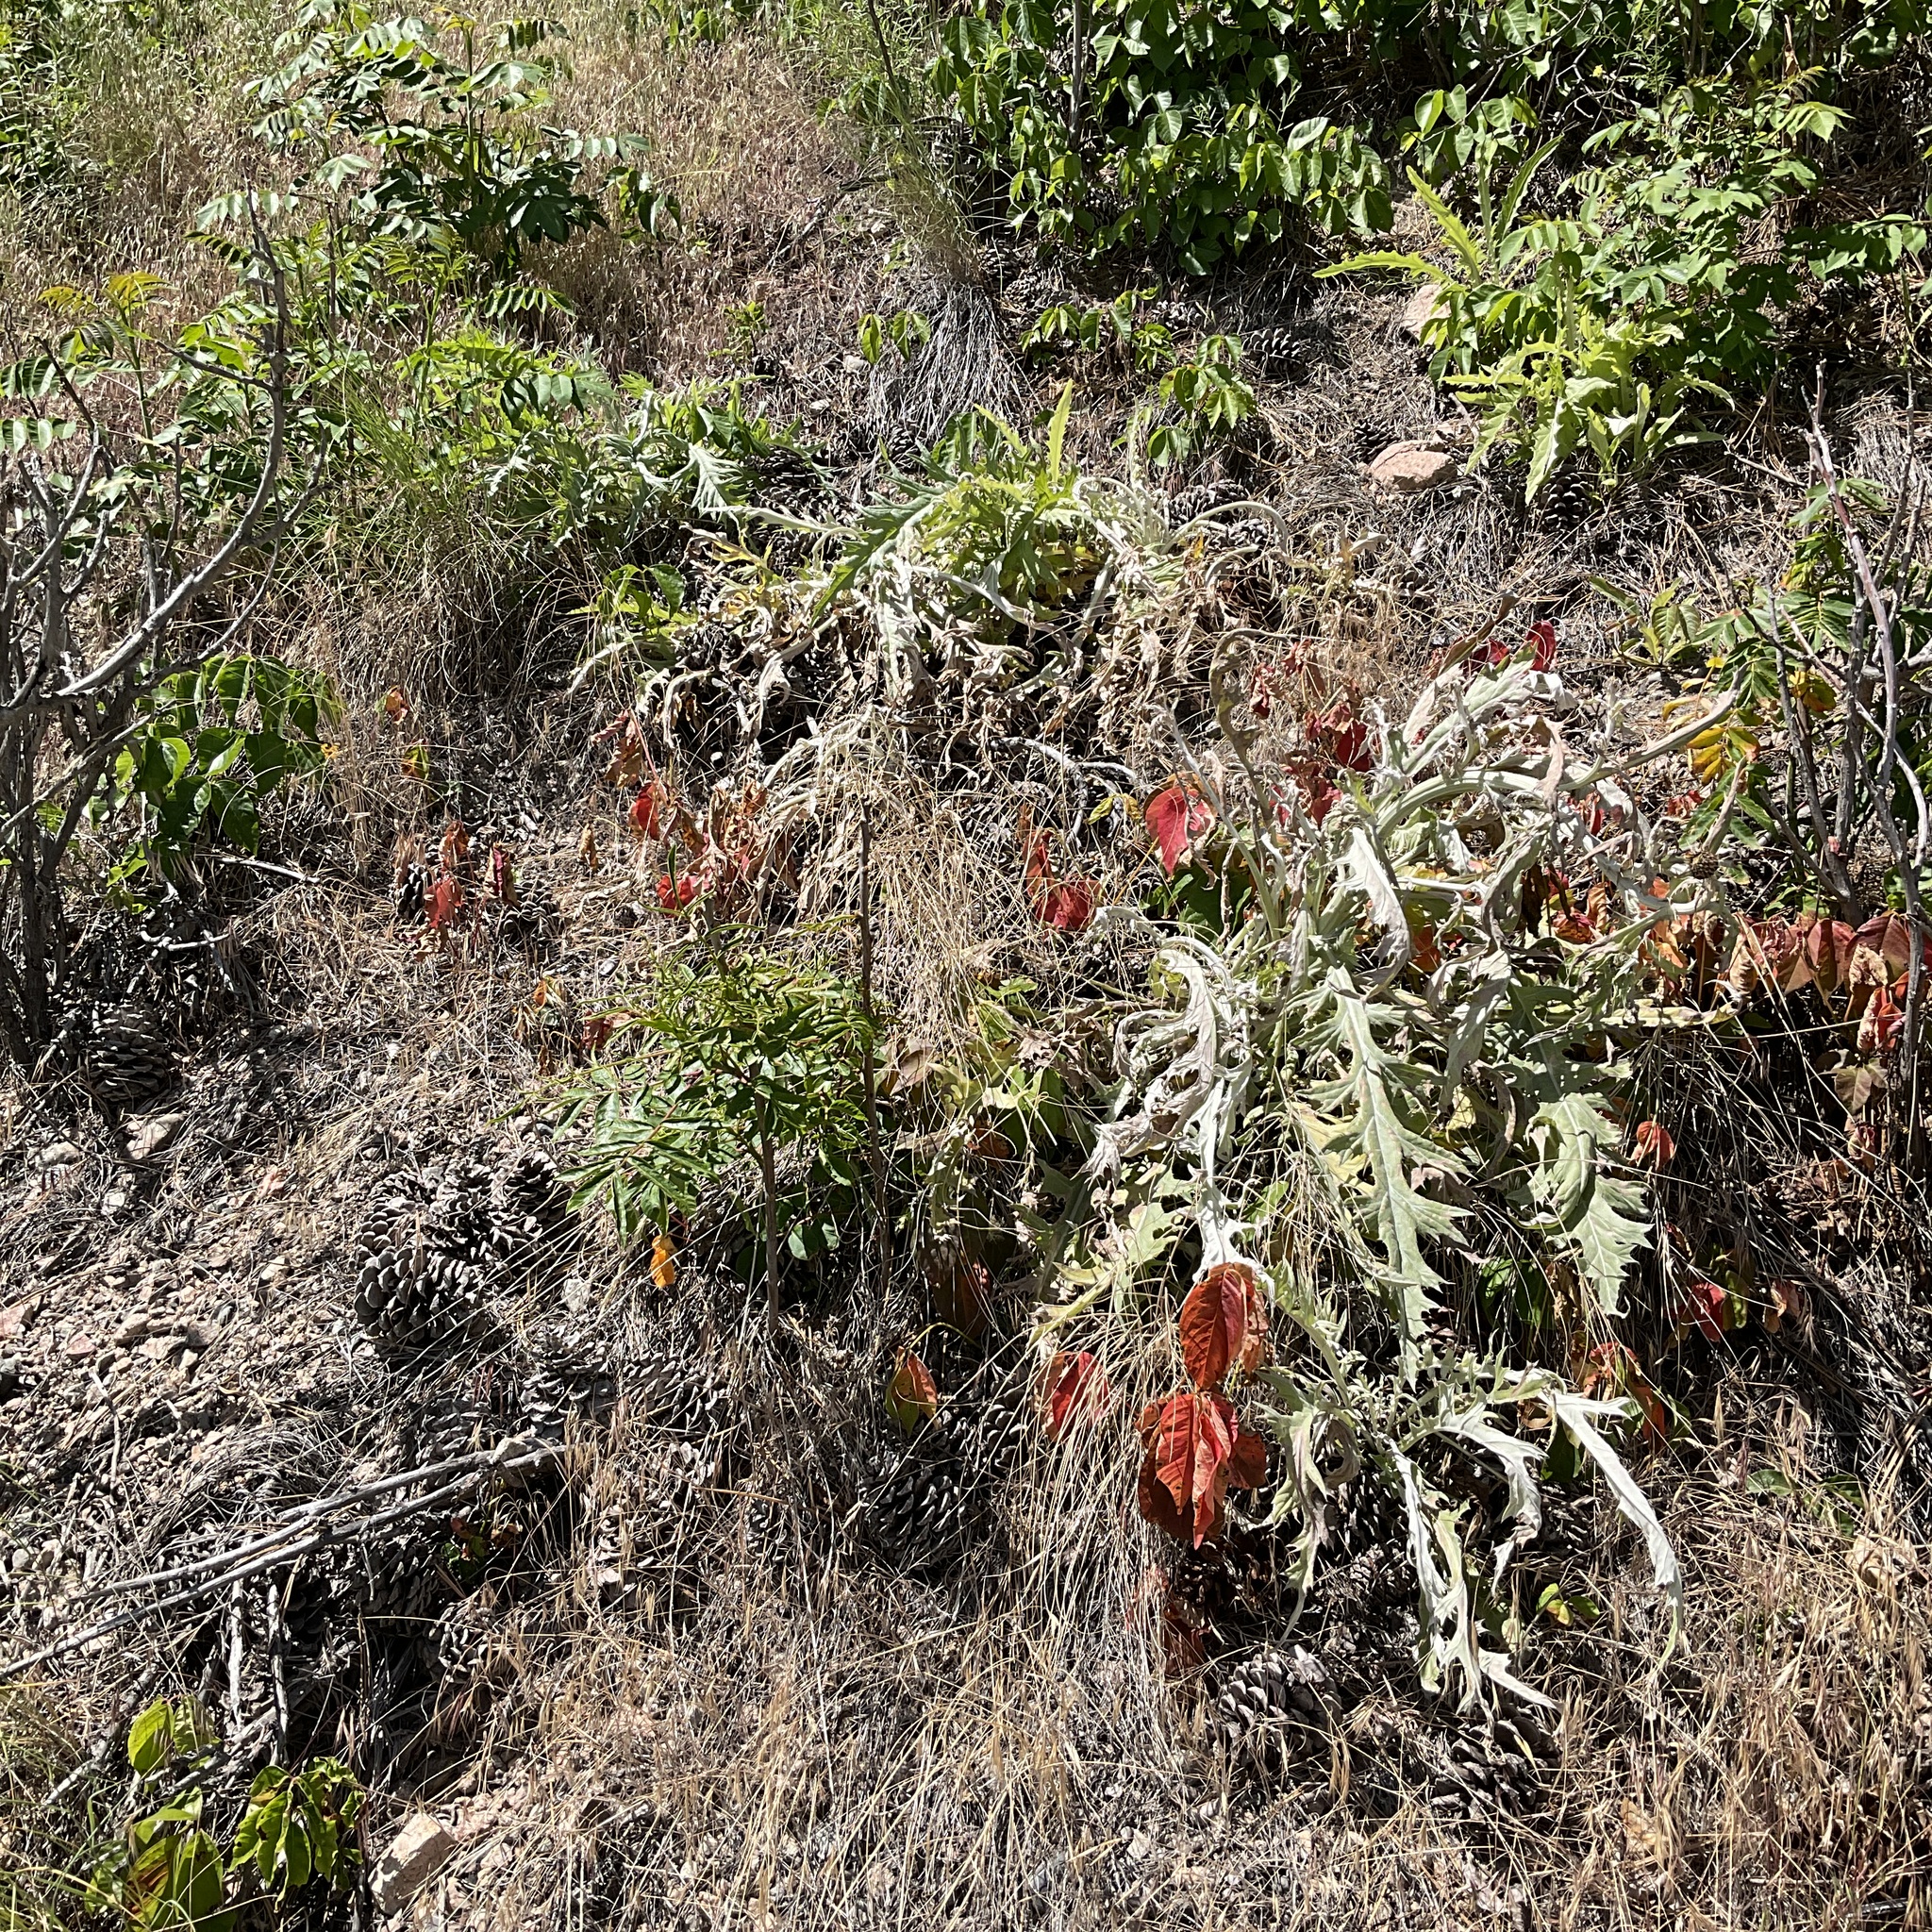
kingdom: Plantae
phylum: Tracheophyta
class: Magnoliopsida
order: Asterales
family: Asteraceae
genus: Cirsium
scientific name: Cirsium undulatum
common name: Pasture thistle
